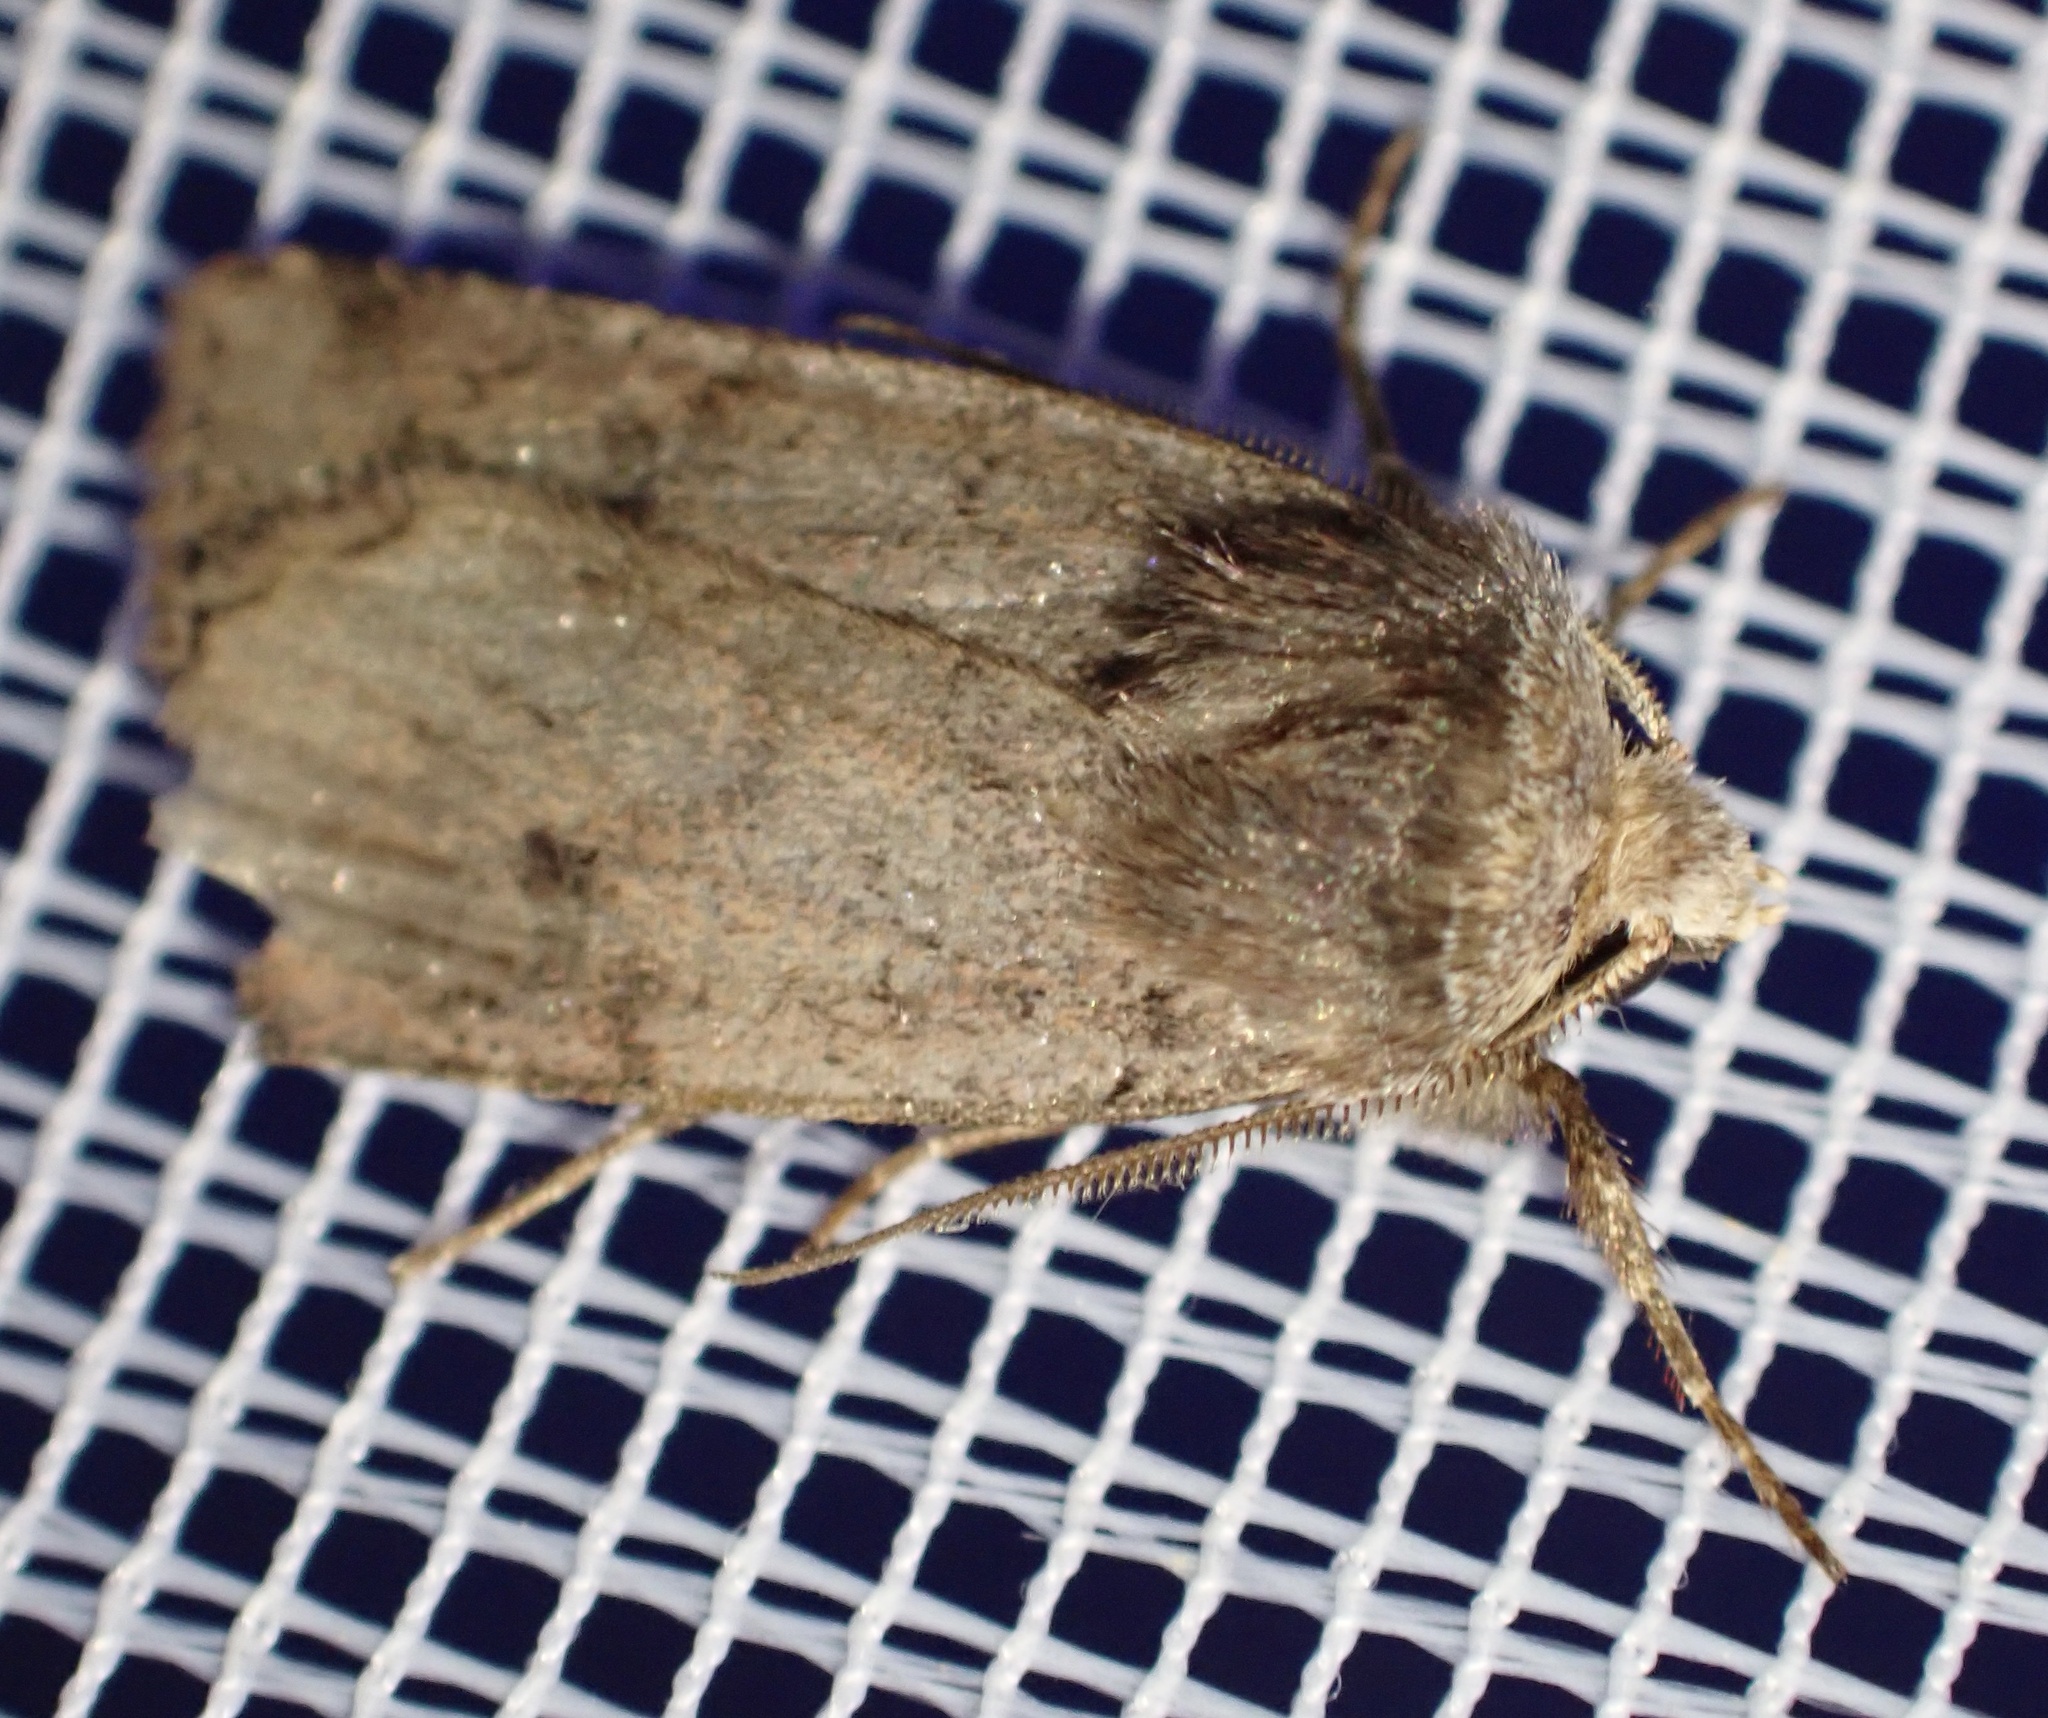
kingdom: Animalia
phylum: Arthropoda
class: Insecta
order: Lepidoptera
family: Noctuidae
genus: Cerastis
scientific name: Cerastis faceta
